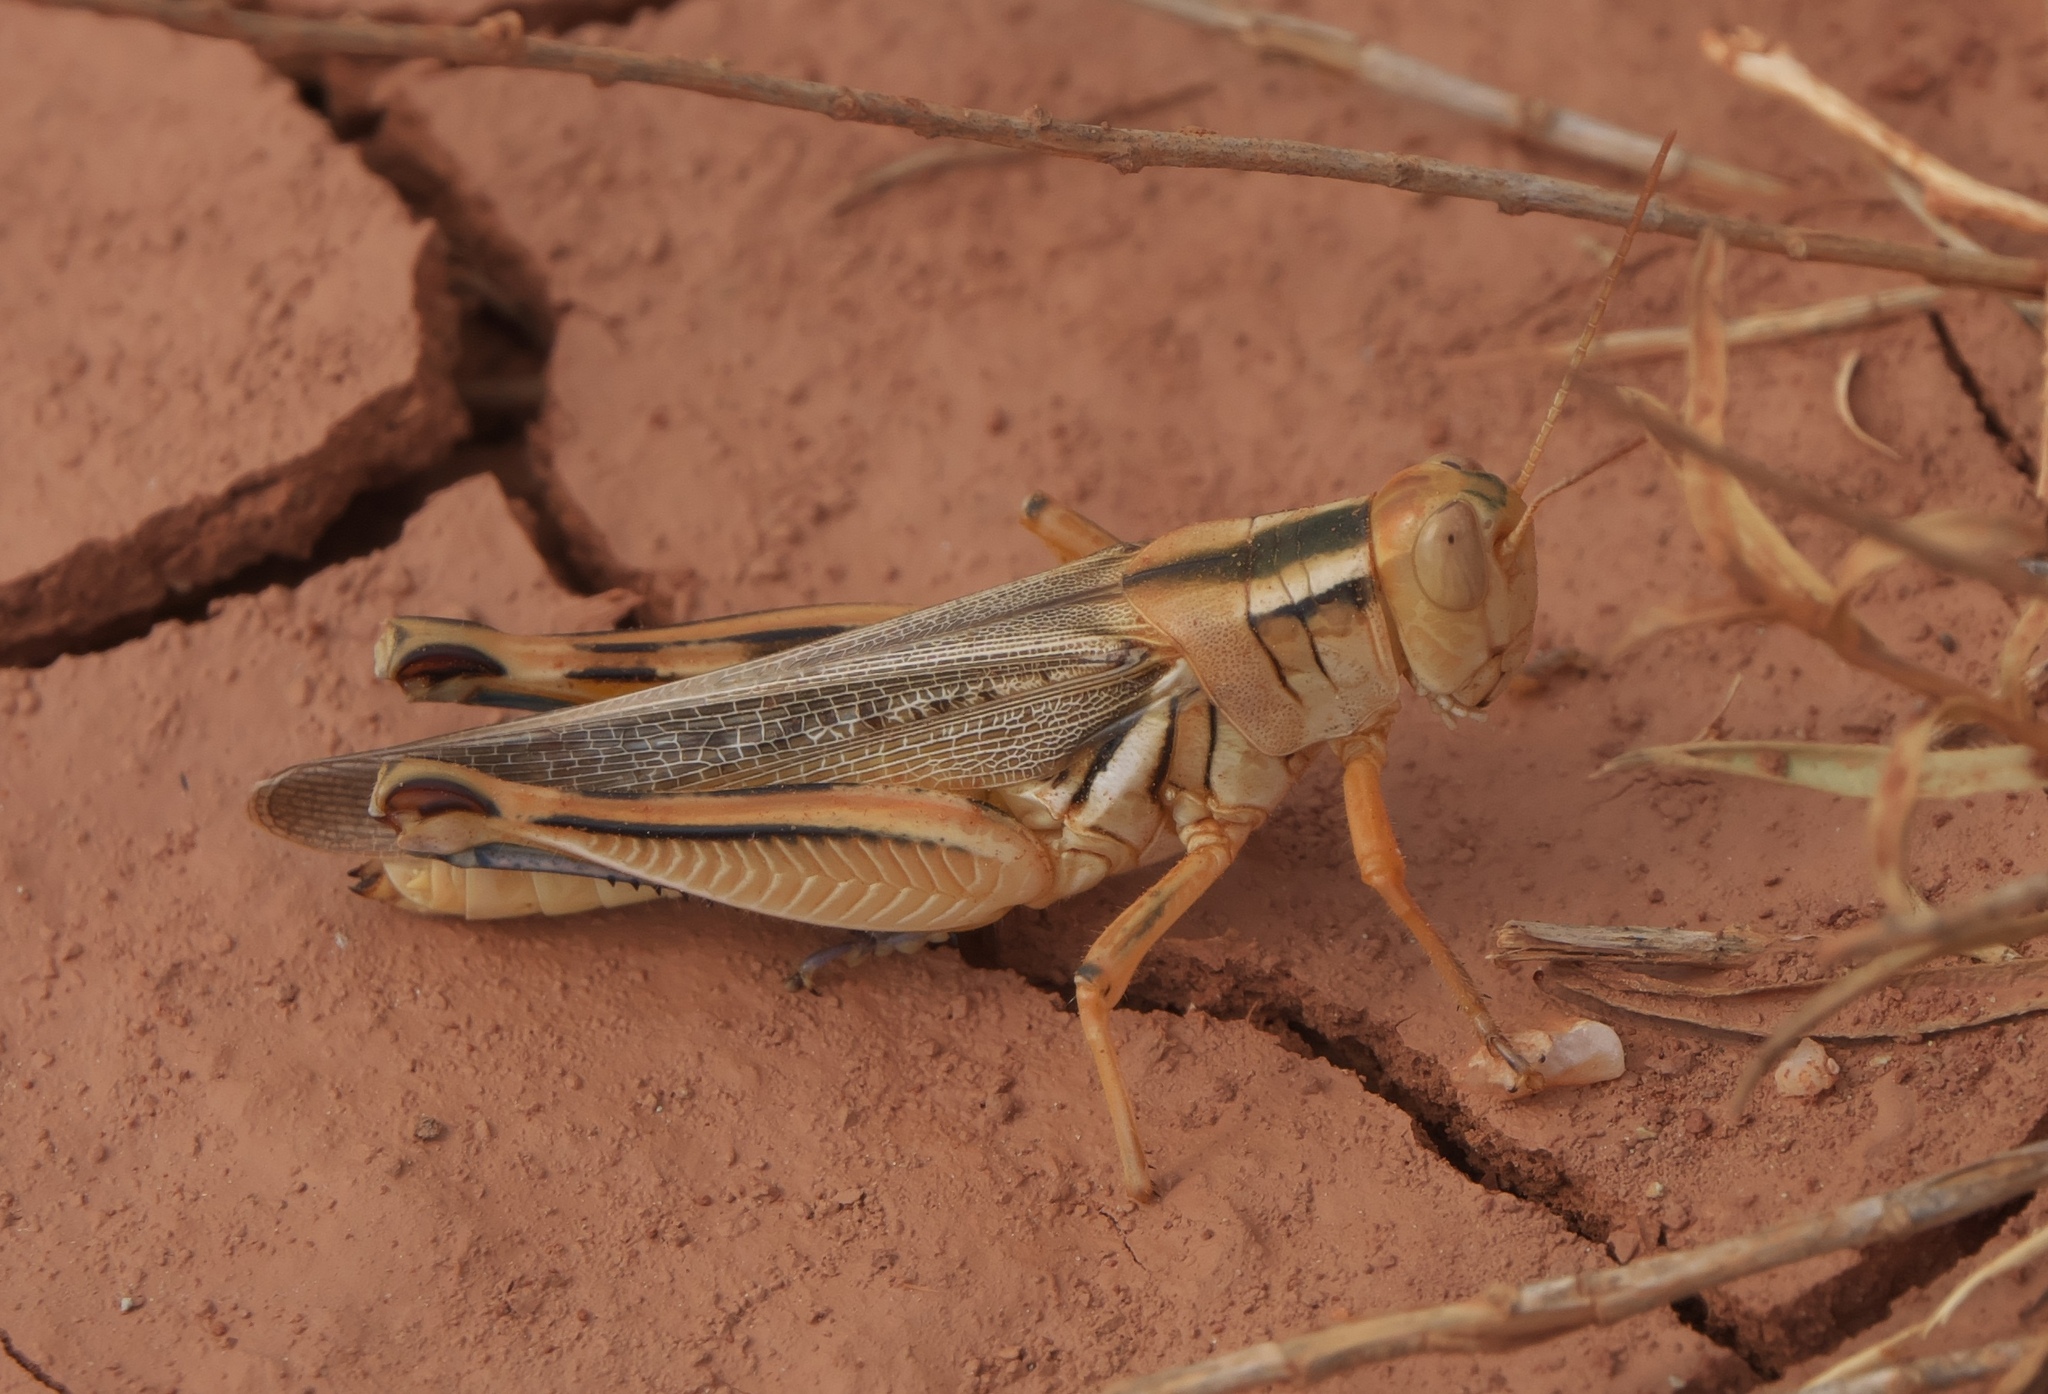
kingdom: Animalia
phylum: Arthropoda
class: Insecta
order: Orthoptera
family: Acrididae
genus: Melanoplus
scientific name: Melanoplus packardii
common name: Packard's grasshopper
